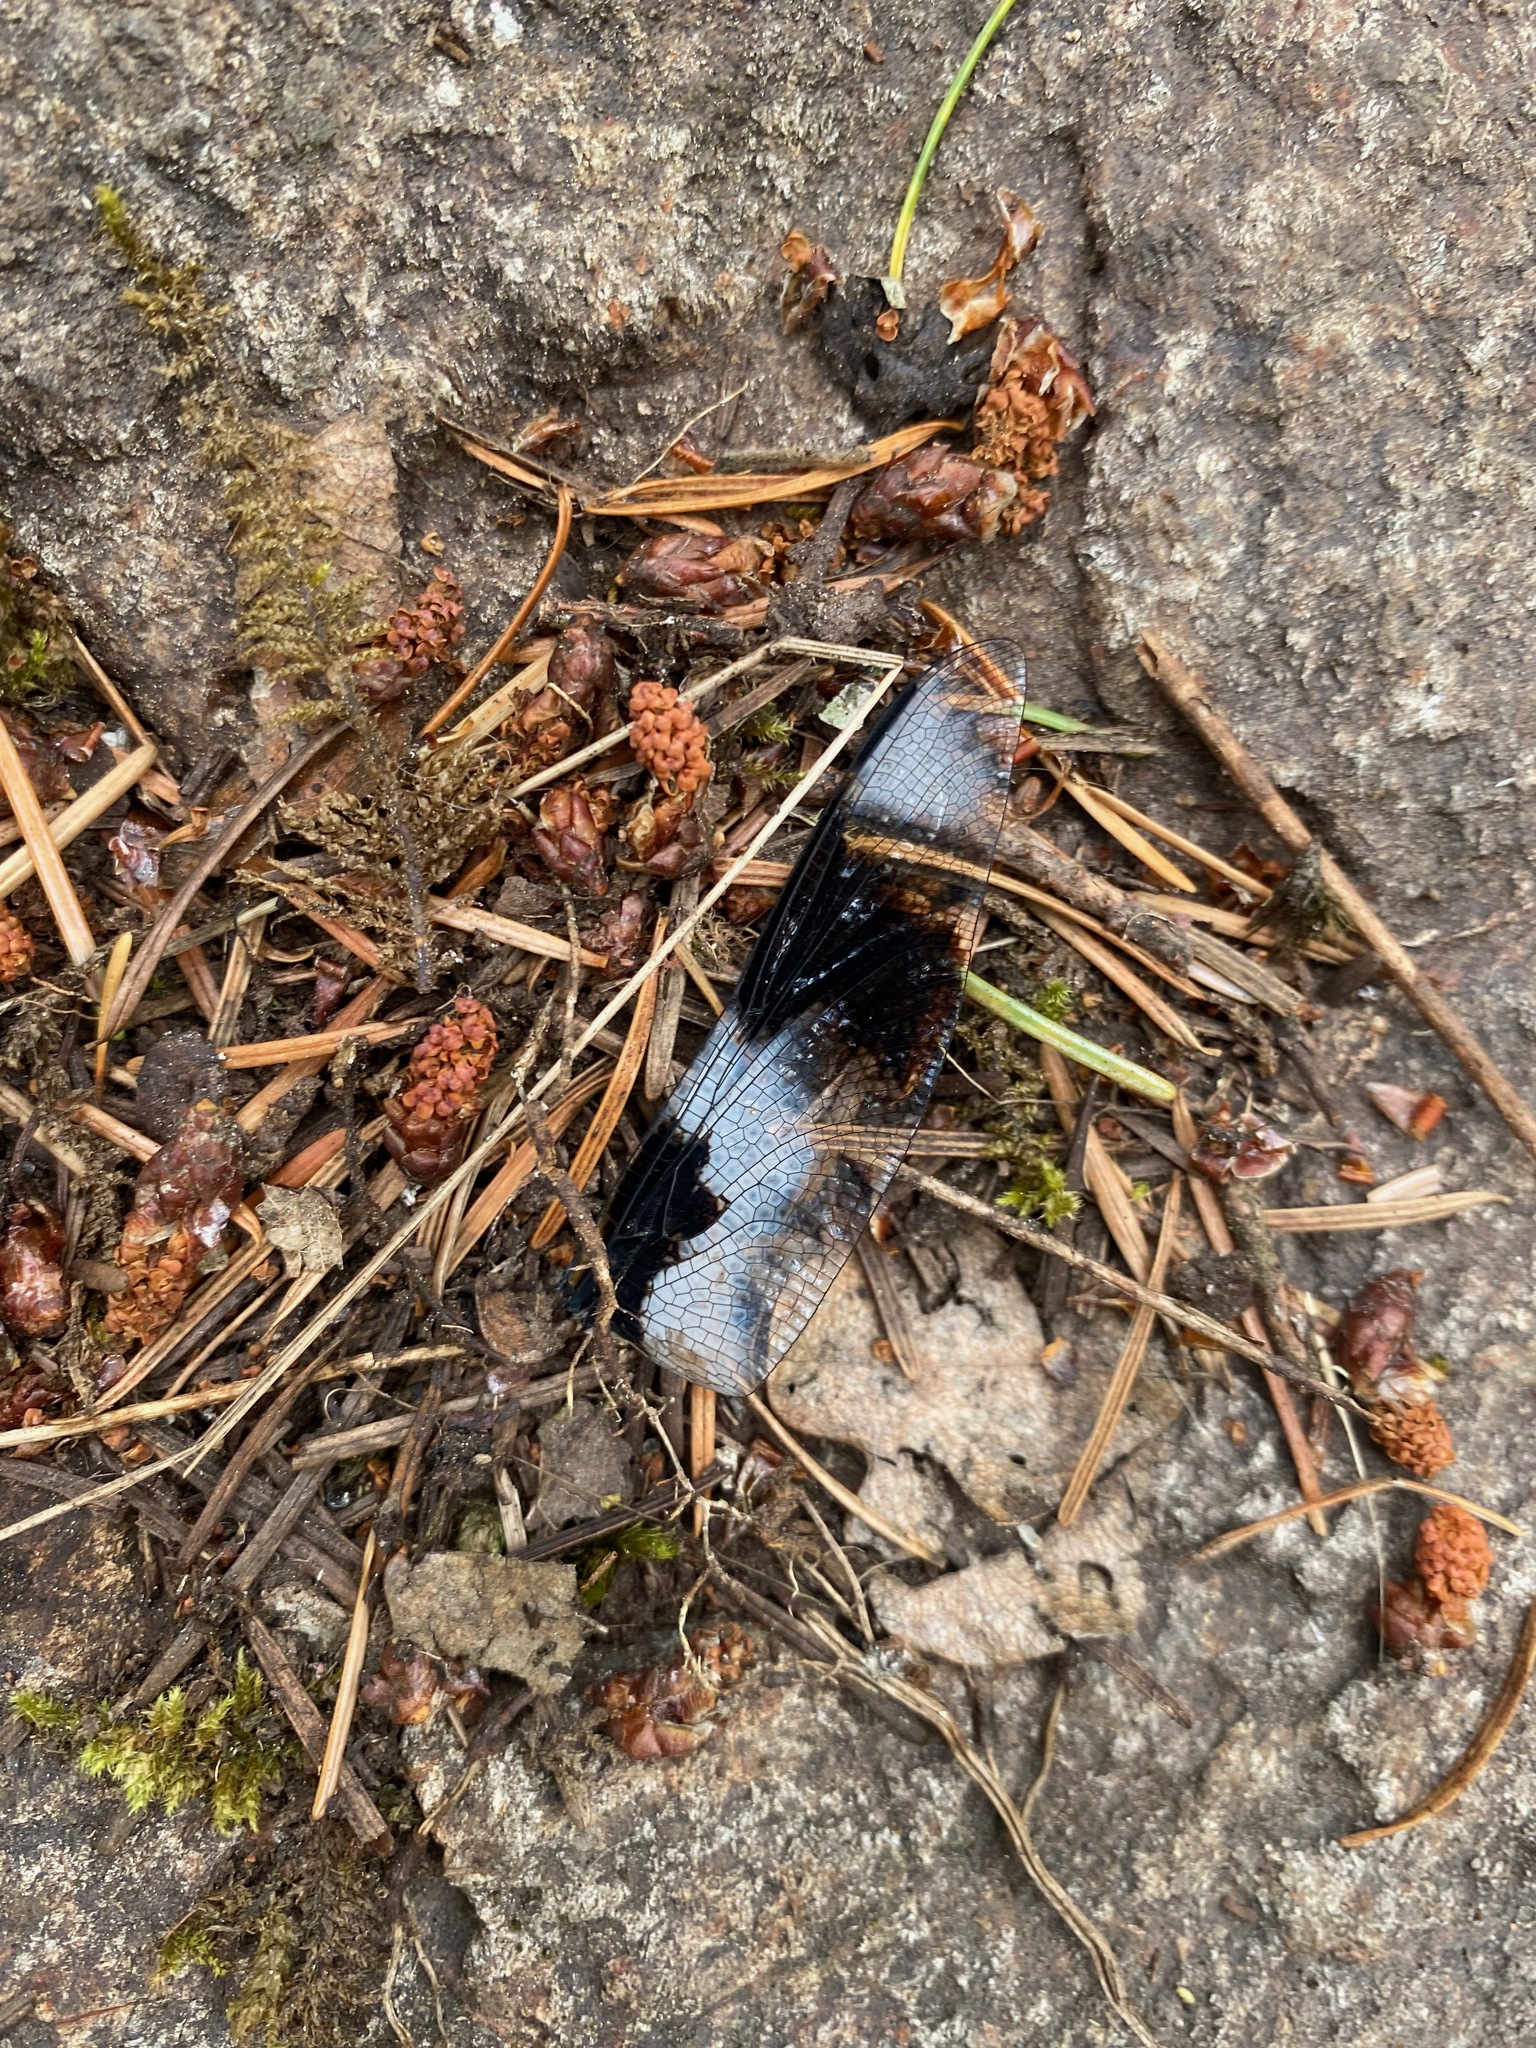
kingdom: Animalia
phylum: Arthropoda
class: Insecta
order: Odonata
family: Libellulidae
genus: Libellula
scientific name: Libellula forensis
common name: Eight-spotted skimmer
